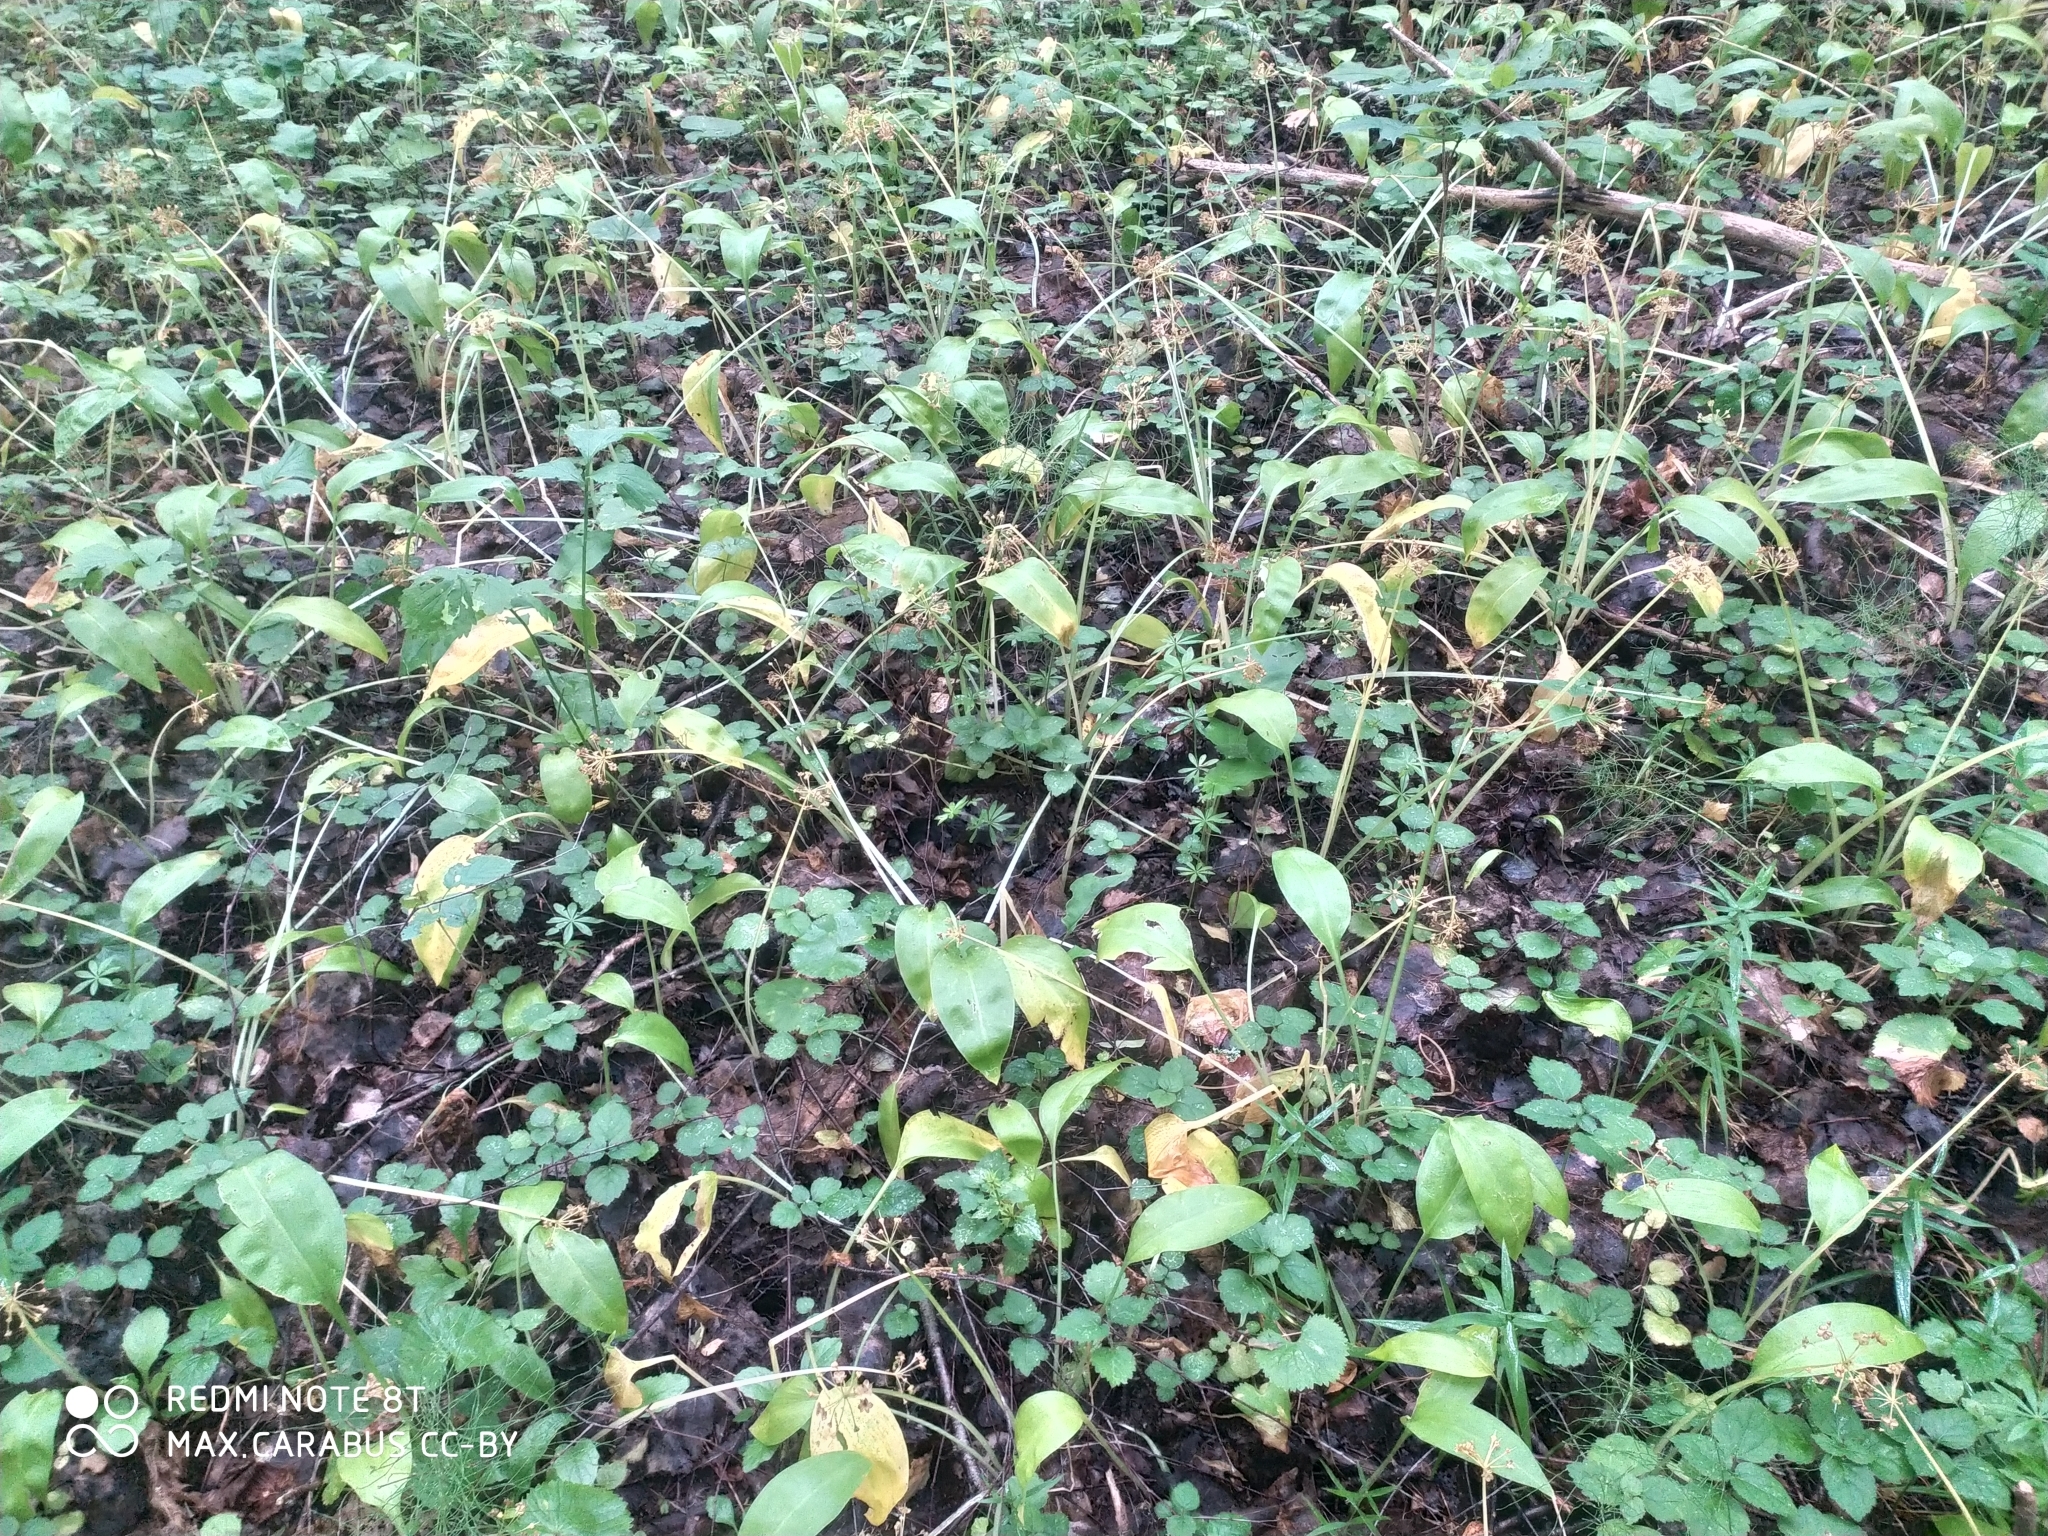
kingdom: Plantae
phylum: Tracheophyta
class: Liliopsida
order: Asparagales
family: Amaryllidaceae
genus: Allium
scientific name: Allium ursinum
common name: Ramsons
